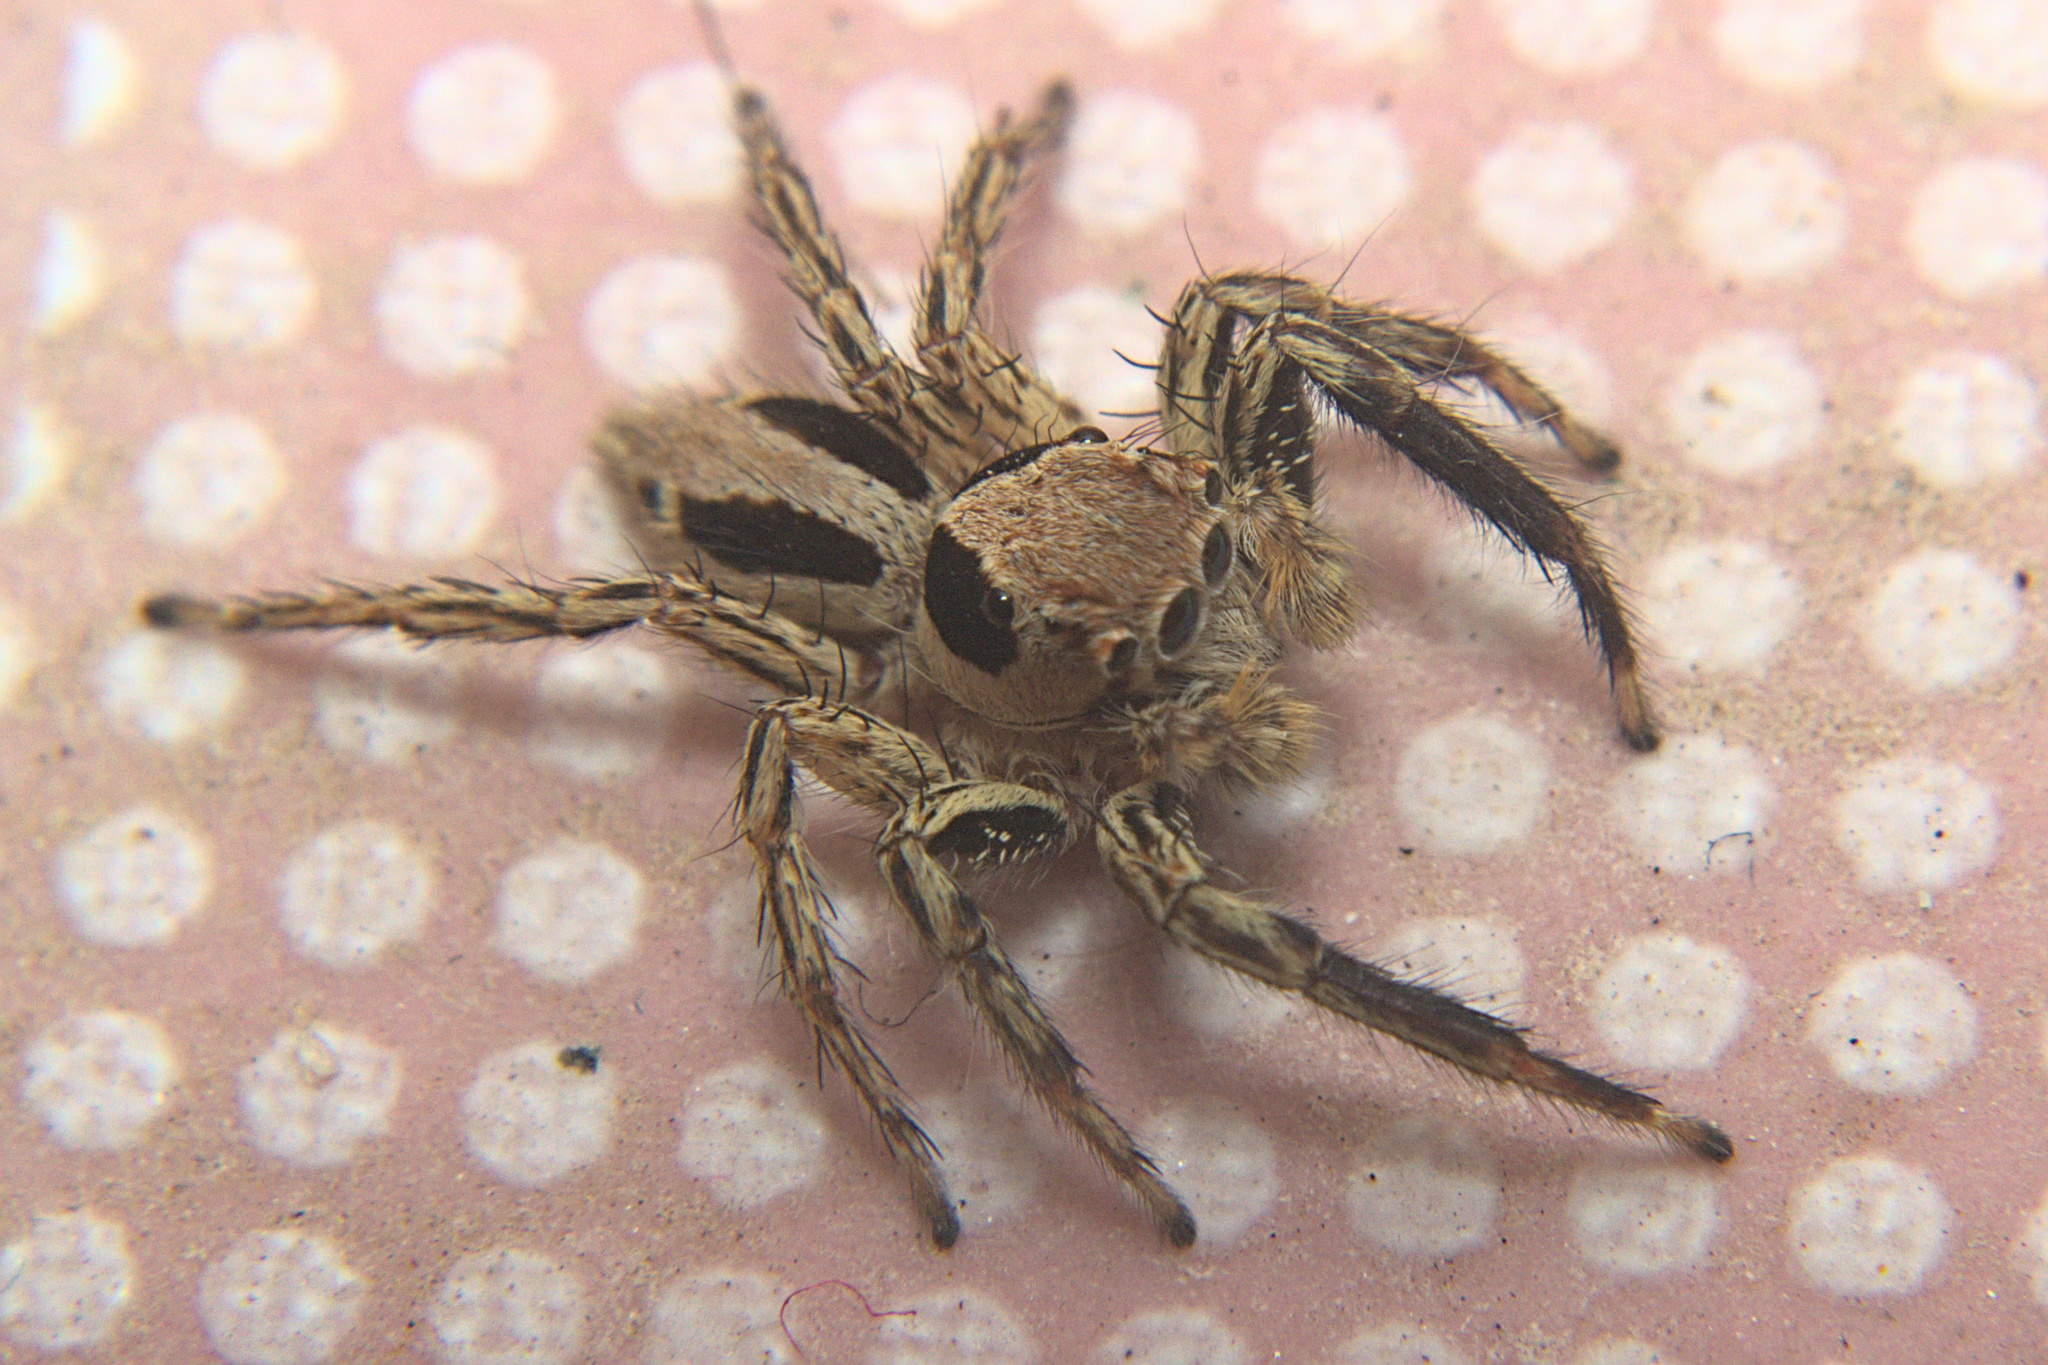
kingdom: Animalia
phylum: Arthropoda
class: Arachnida
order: Araneae
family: Salticidae
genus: Plexippus
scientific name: Plexippus petersi
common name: Jumping spider
